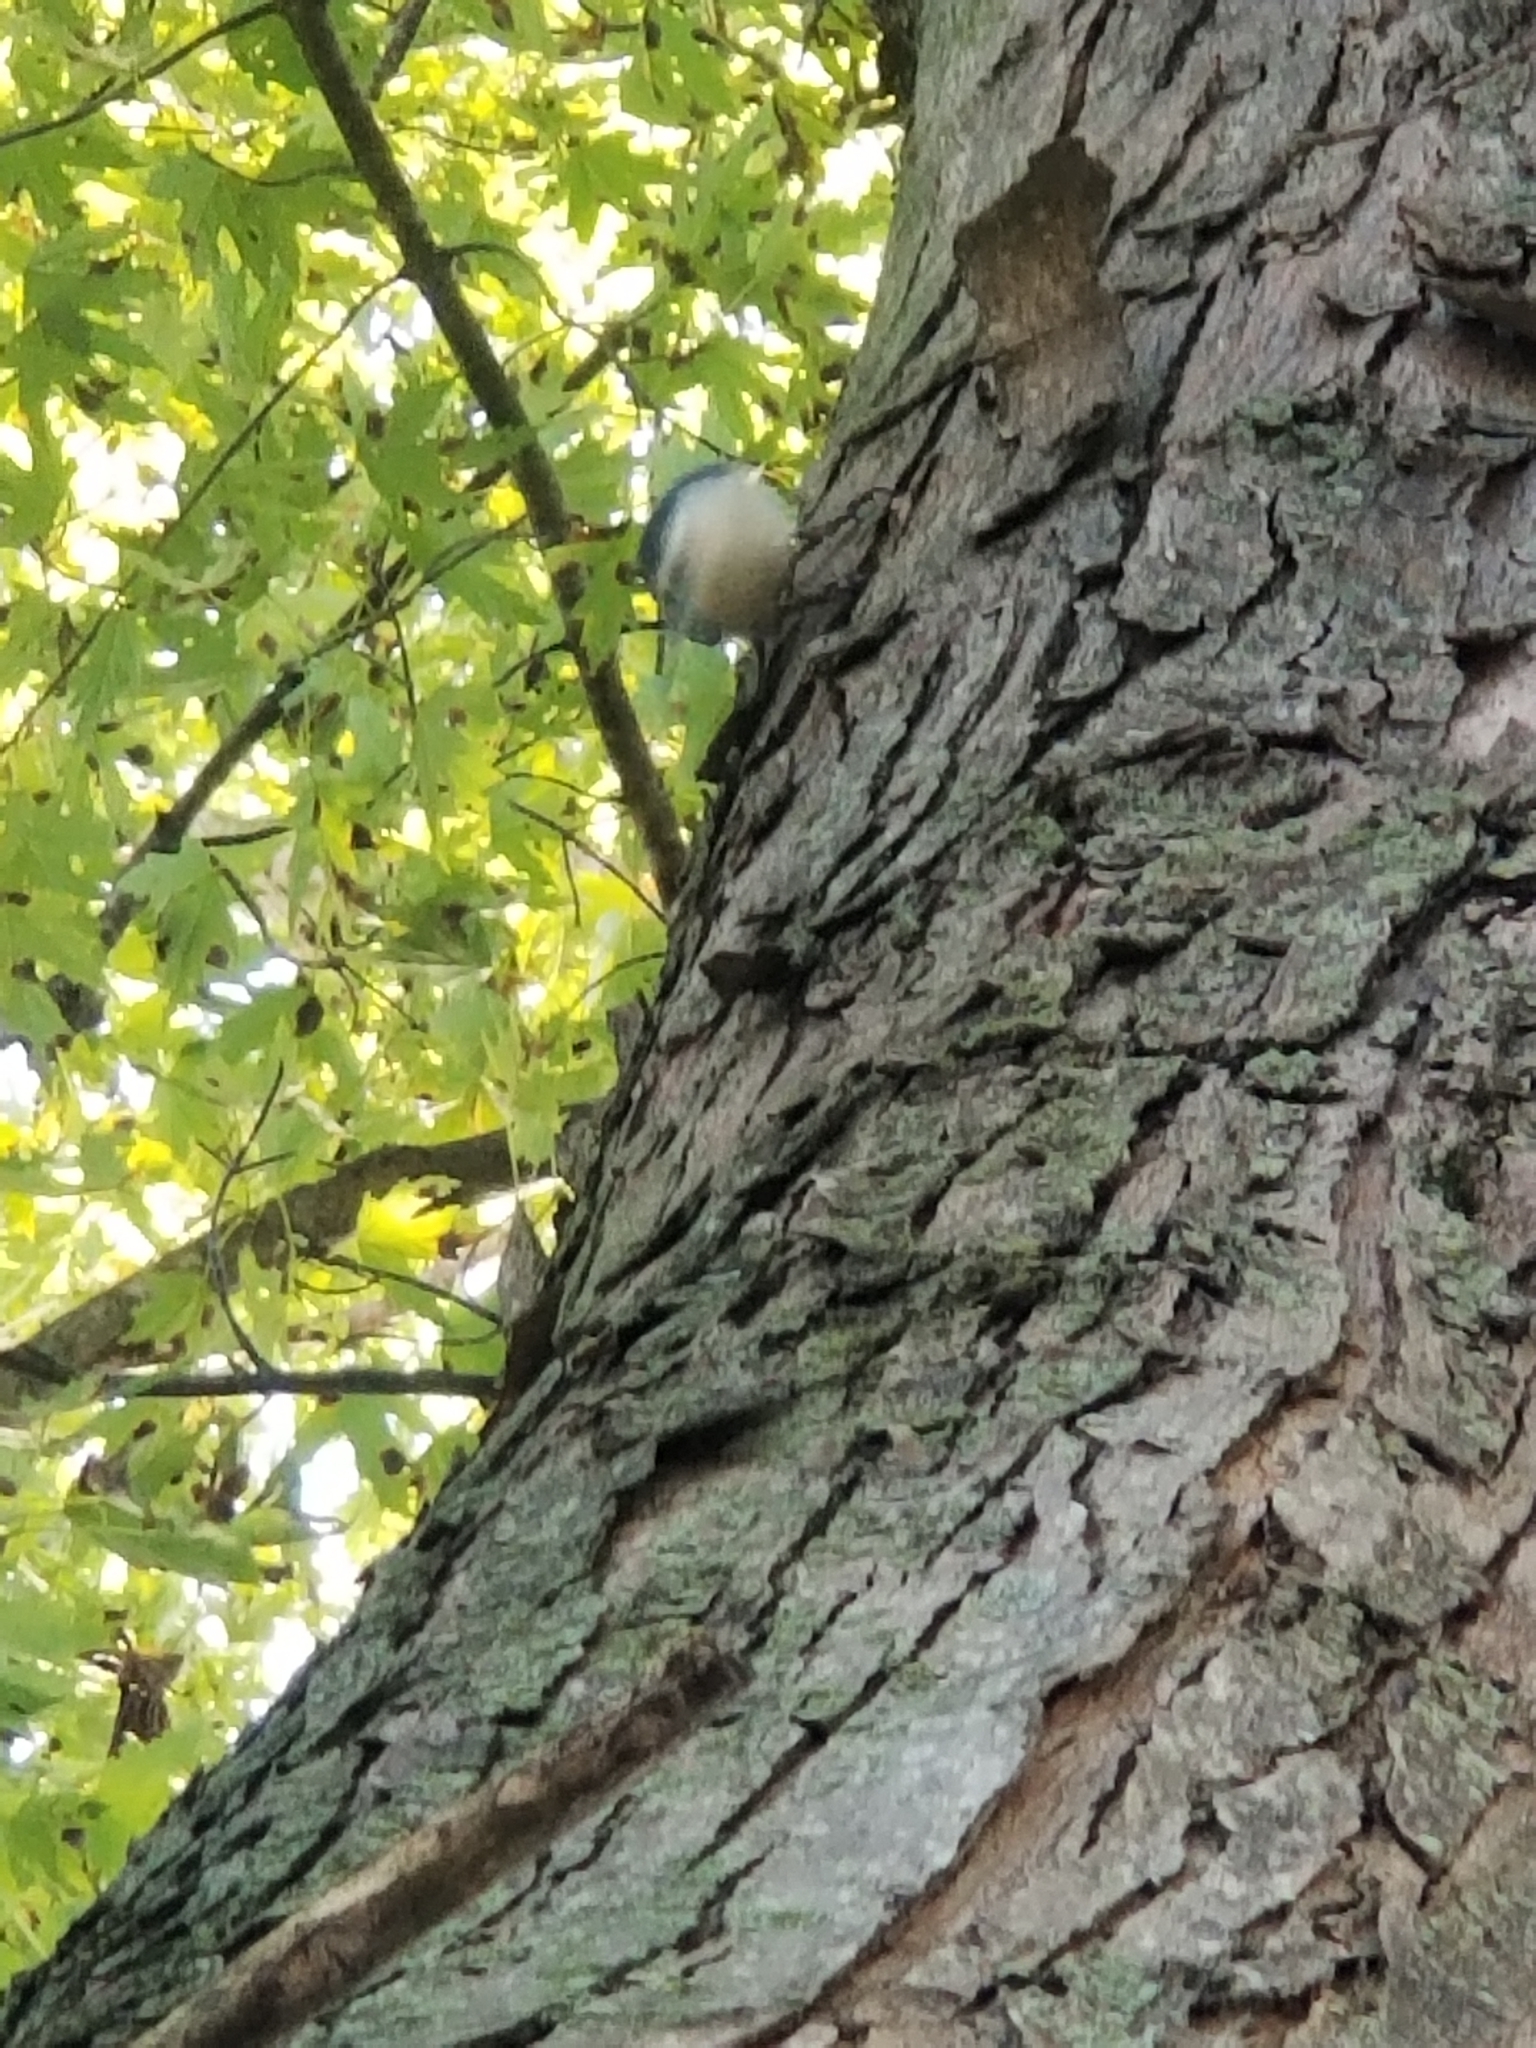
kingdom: Animalia
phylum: Chordata
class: Aves
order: Passeriformes
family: Sittidae
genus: Sitta
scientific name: Sitta carolinensis
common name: White-breasted nuthatch
